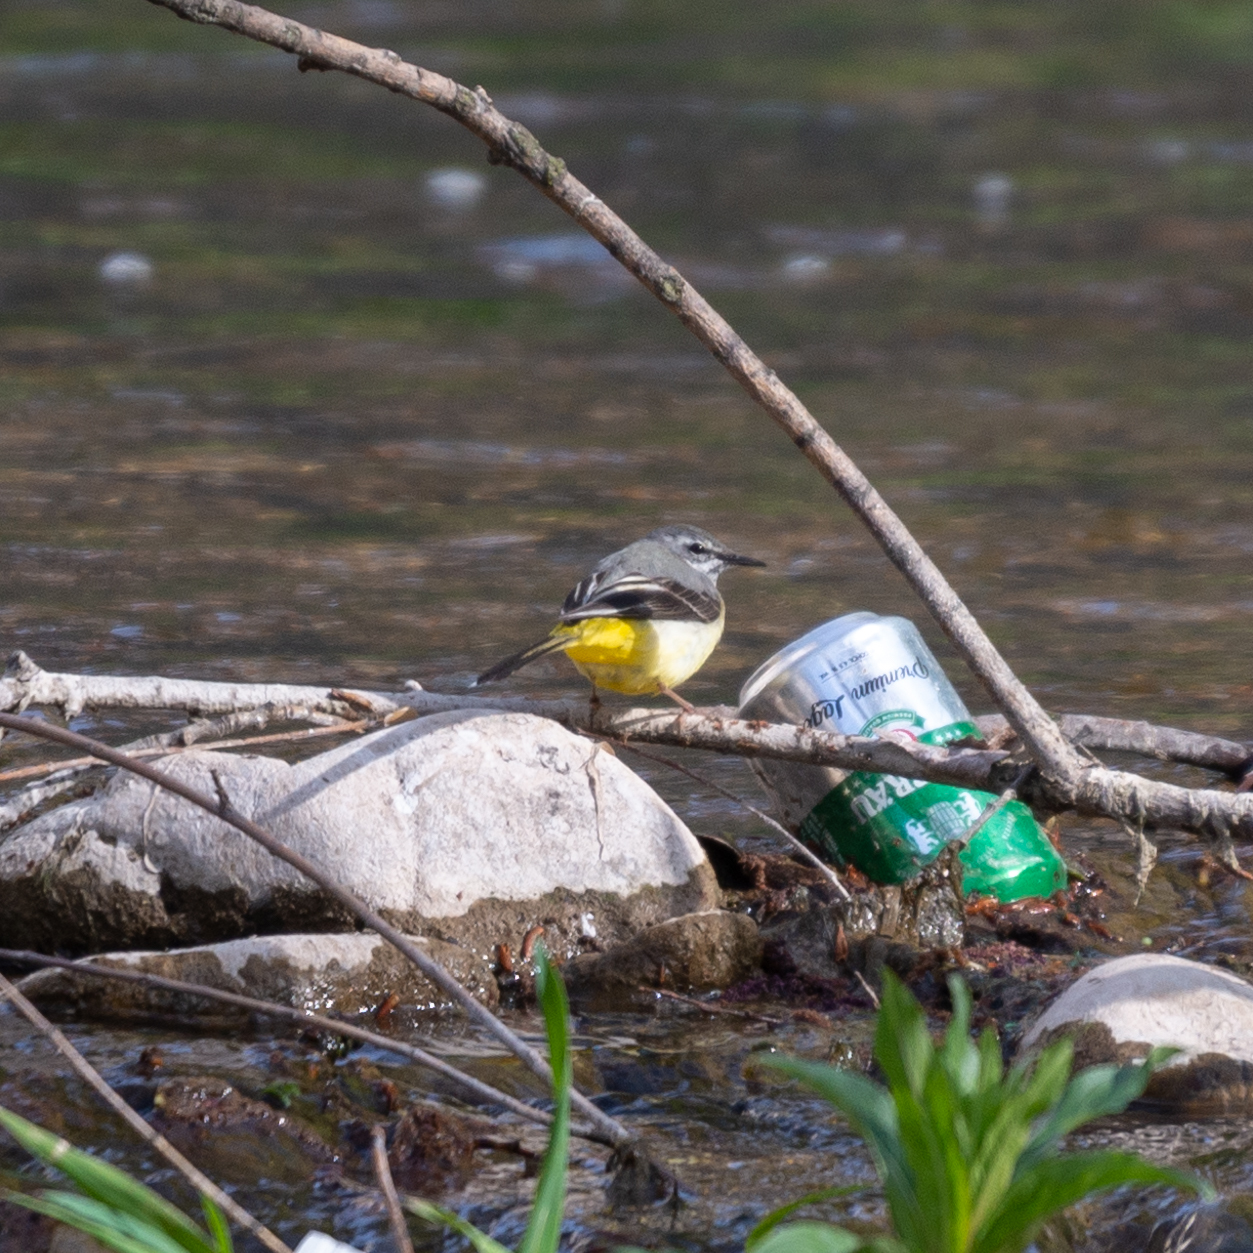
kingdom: Animalia
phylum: Chordata
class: Aves
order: Passeriformes
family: Motacillidae
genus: Motacilla
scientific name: Motacilla cinerea
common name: Grey wagtail
